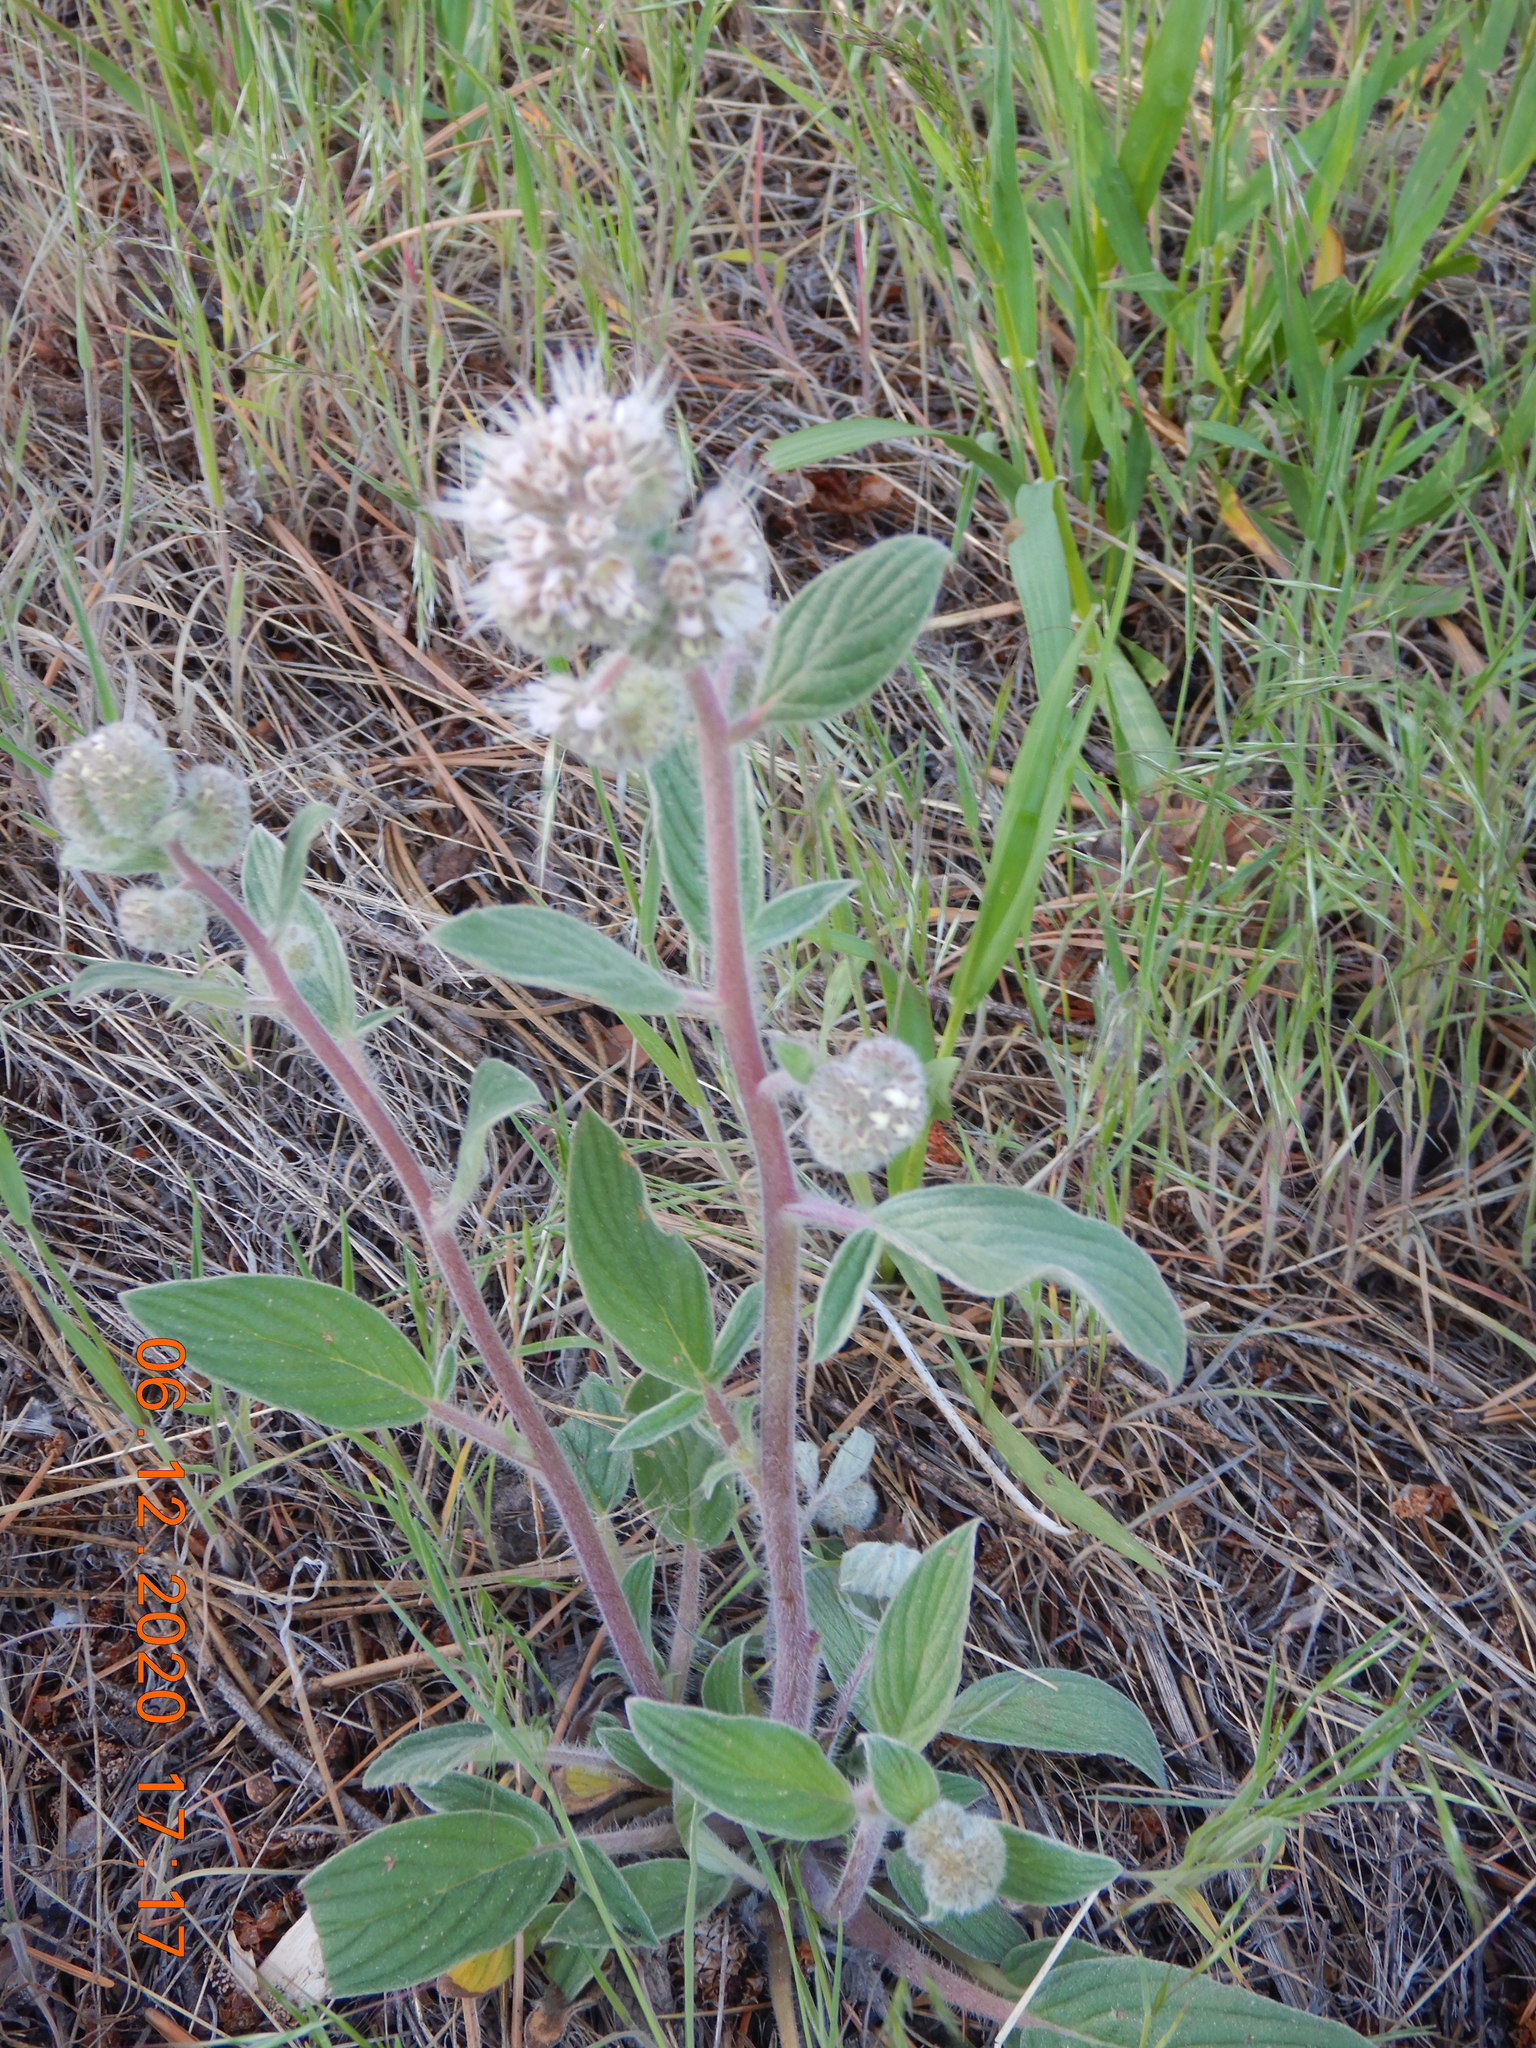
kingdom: Plantae
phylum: Tracheophyta
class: Magnoliopsida
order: Boraginales
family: Hydrophyllaceae
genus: Phacelia
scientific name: Phacelia hastata
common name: Silver-leaved phacelia
